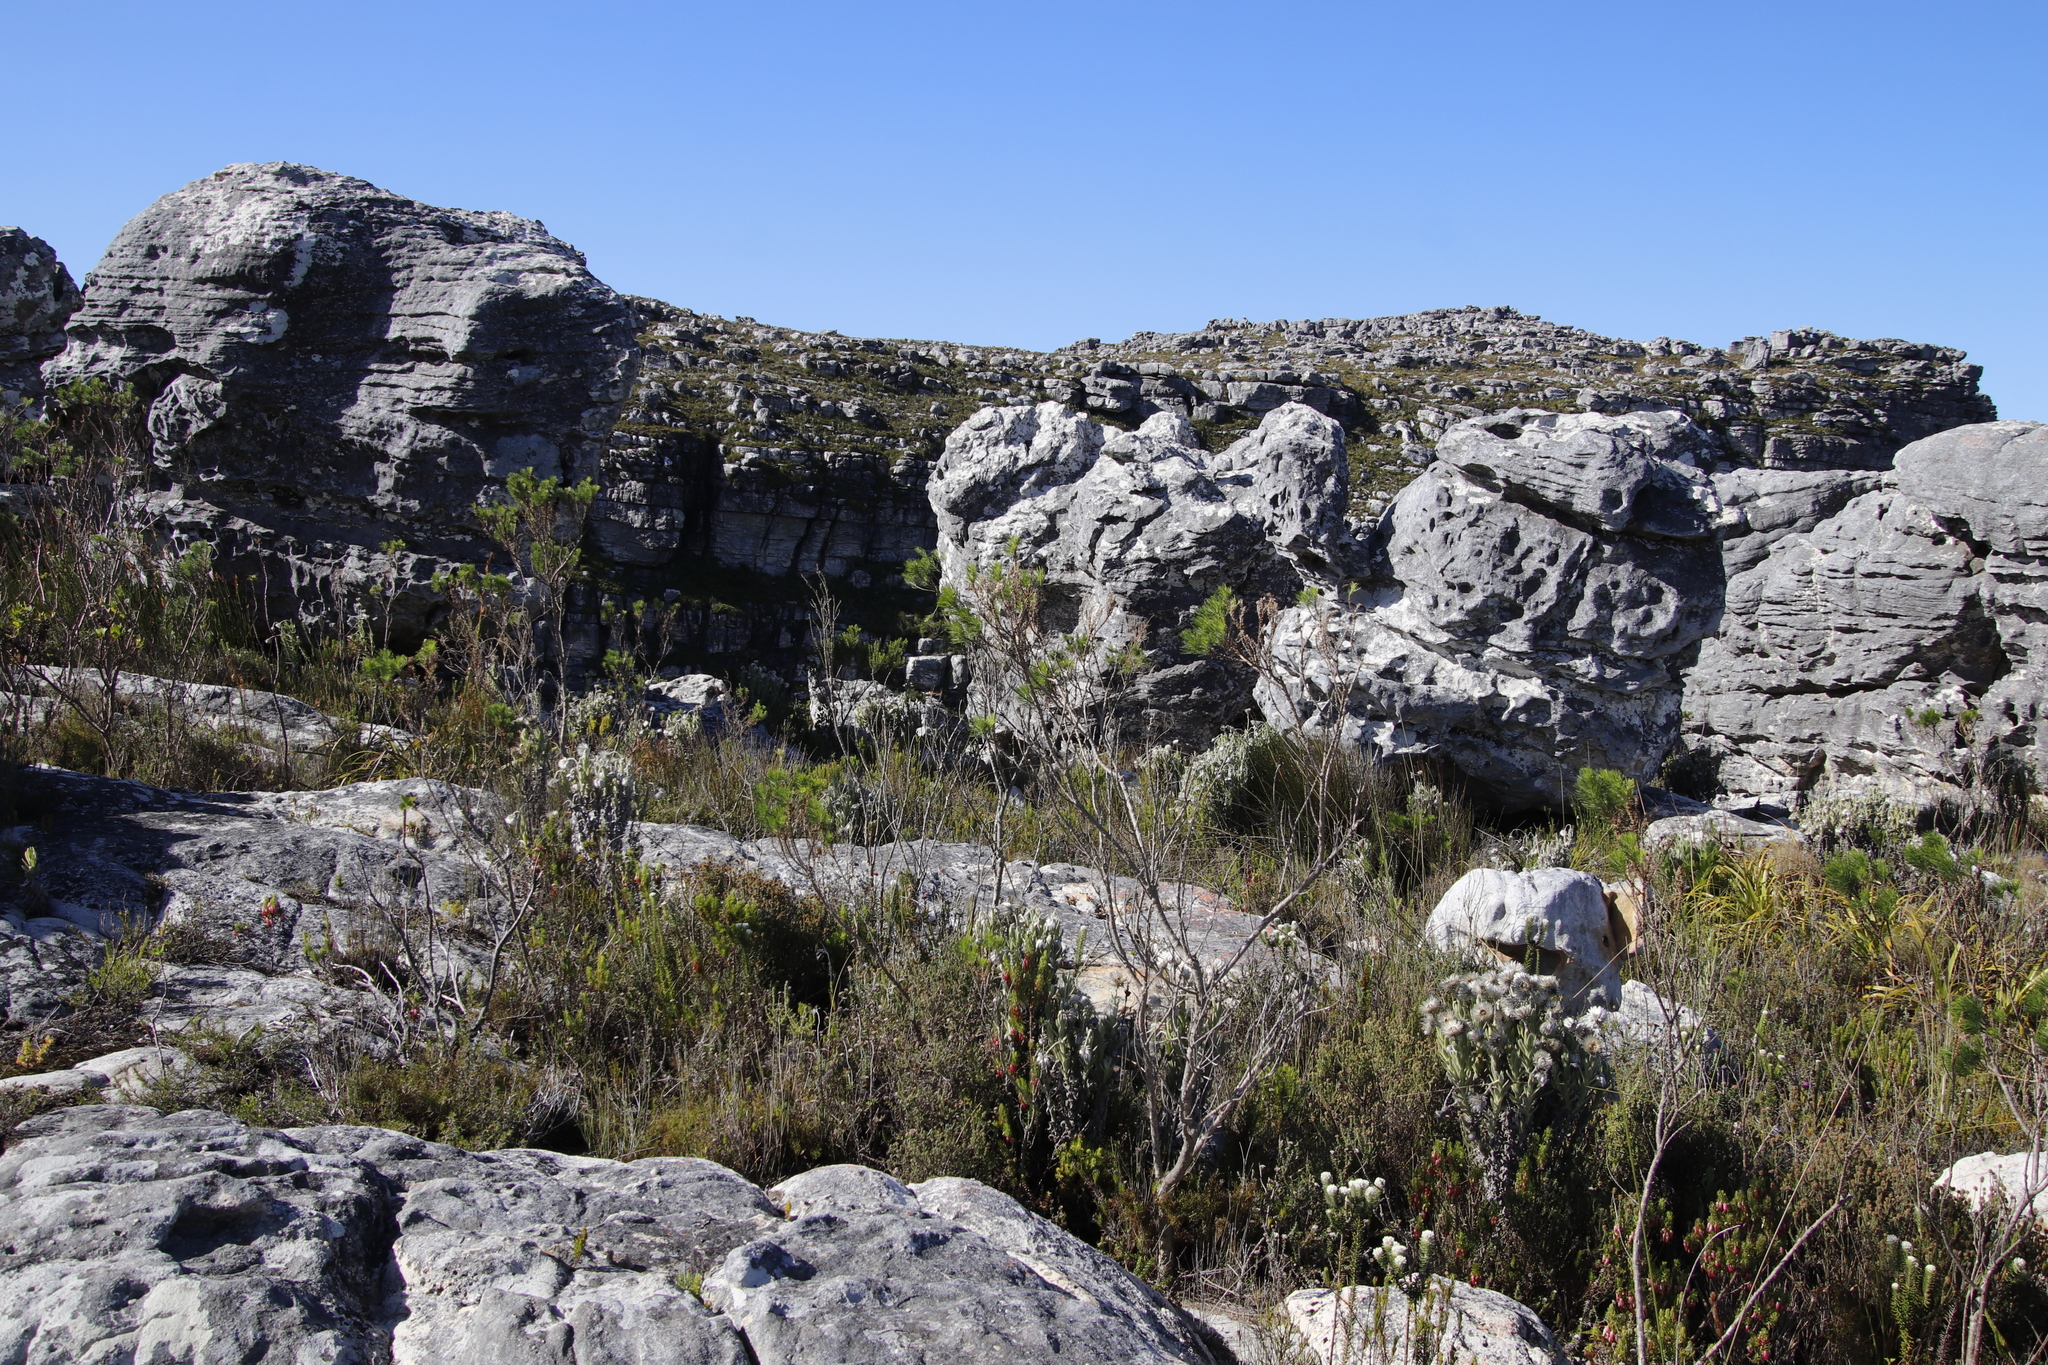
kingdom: Plantae
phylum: Tracheophyta
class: Magnoliopsida
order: Fabales
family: Fabaceae
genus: Psoralea
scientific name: Psoralea pinnata
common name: African scurfpea
